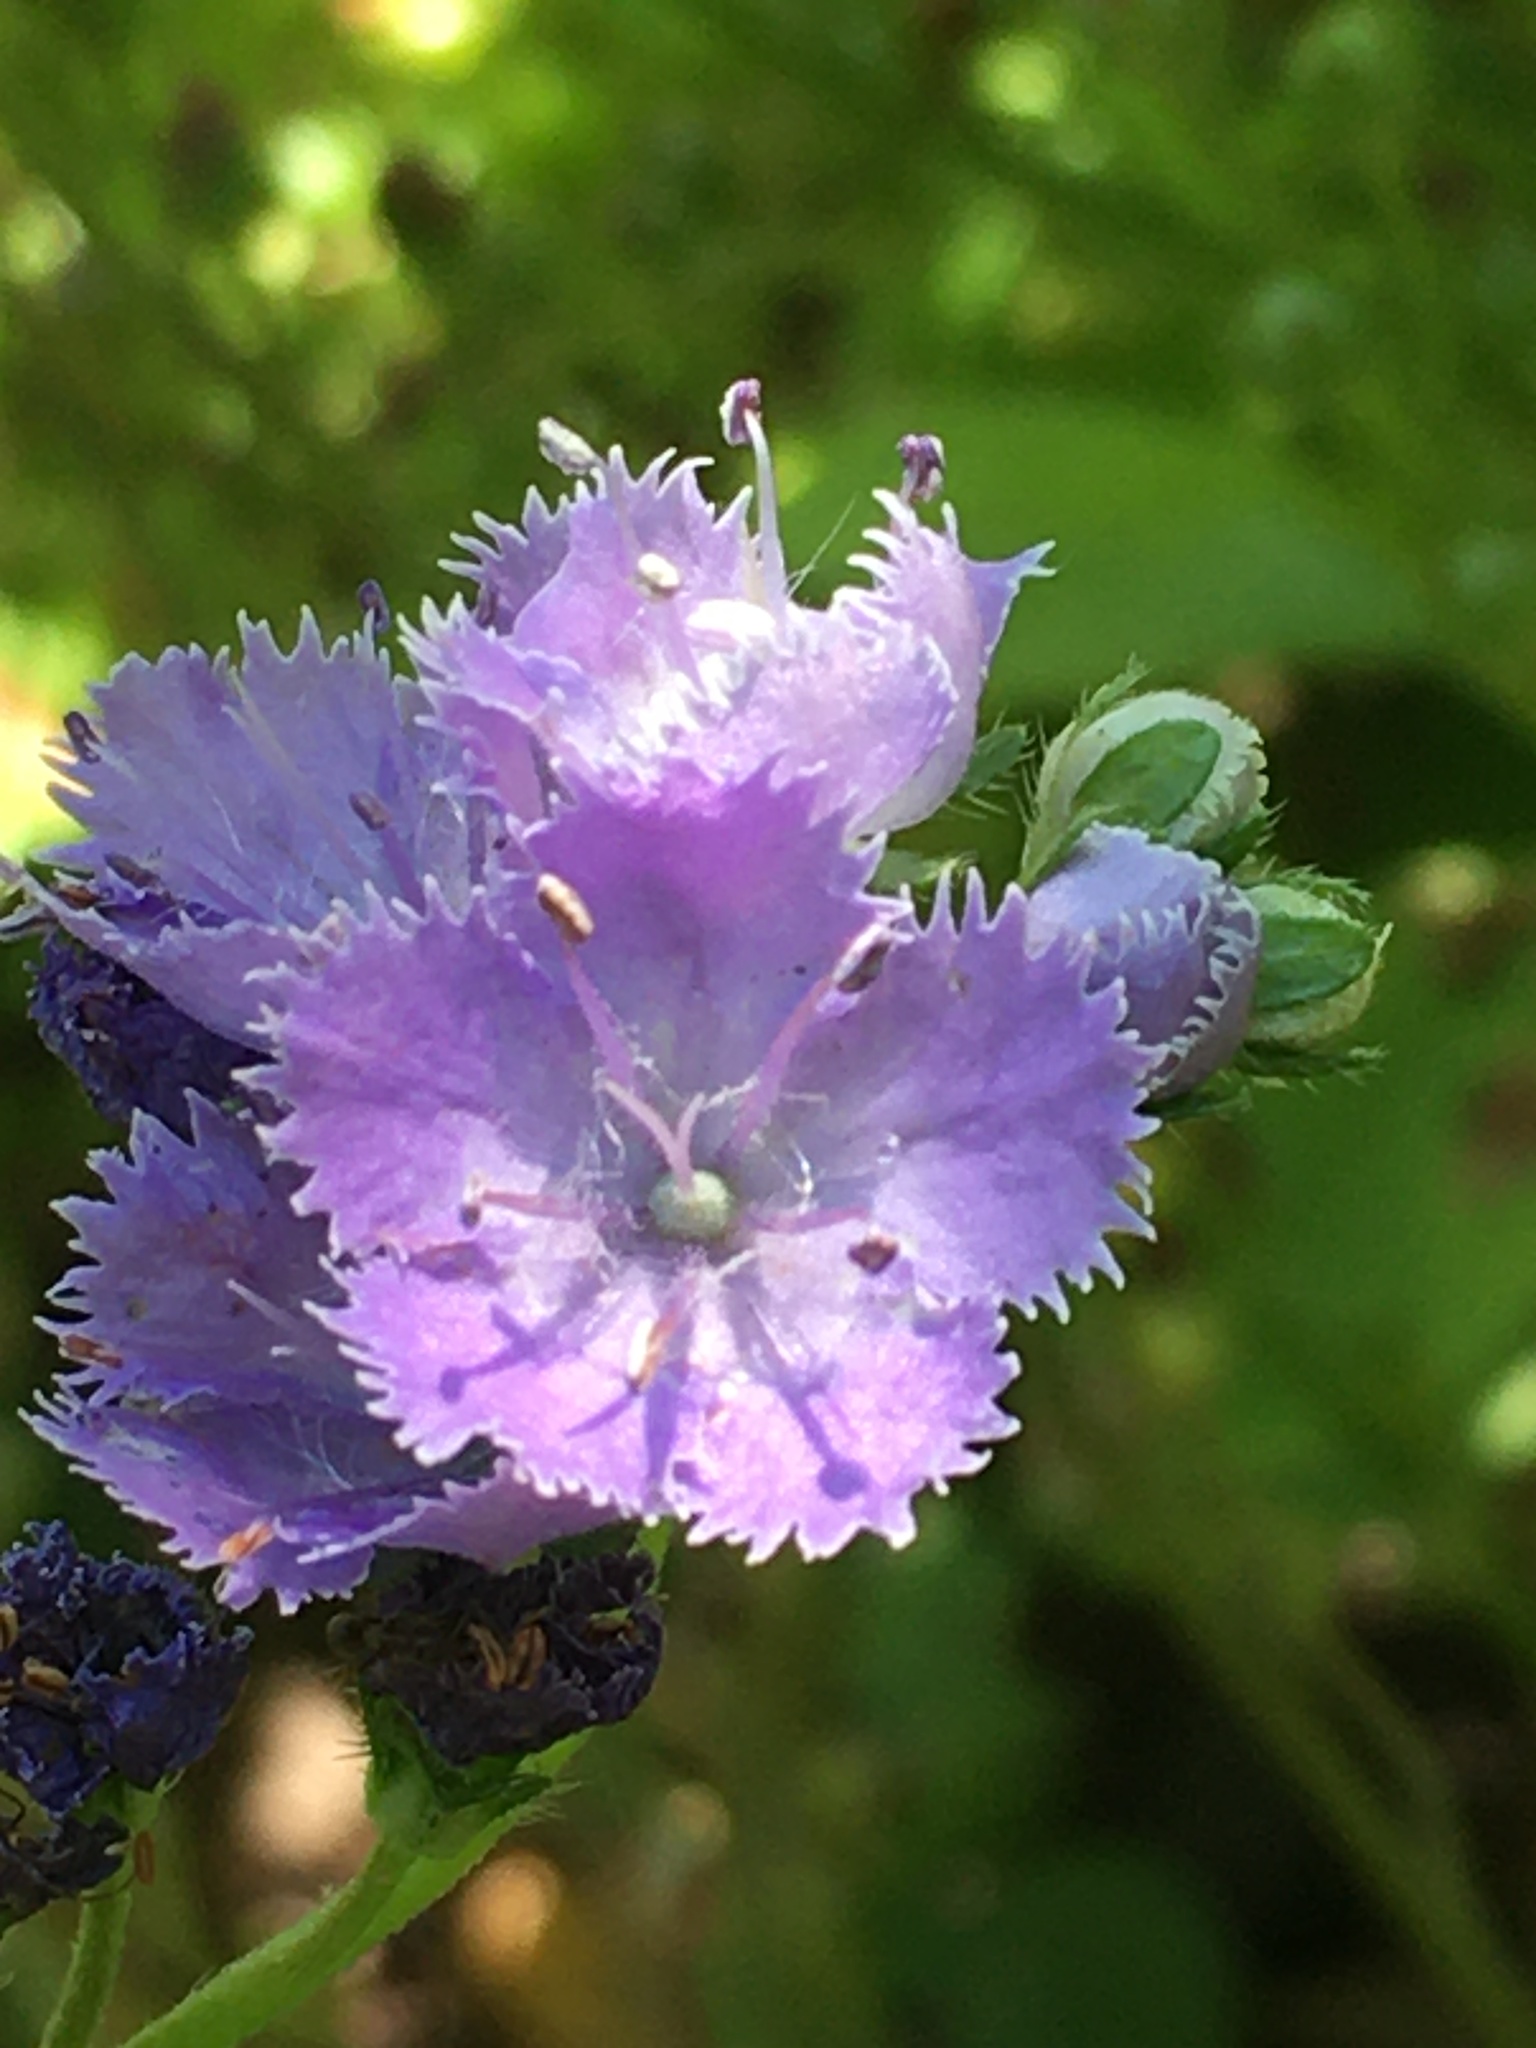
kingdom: Plantae
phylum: Tracheophyta
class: Magnoliopsida
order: Boraginales
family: Hydrophyllaceae
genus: Phacelia
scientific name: Phacelia purshii
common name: Miami-mist
